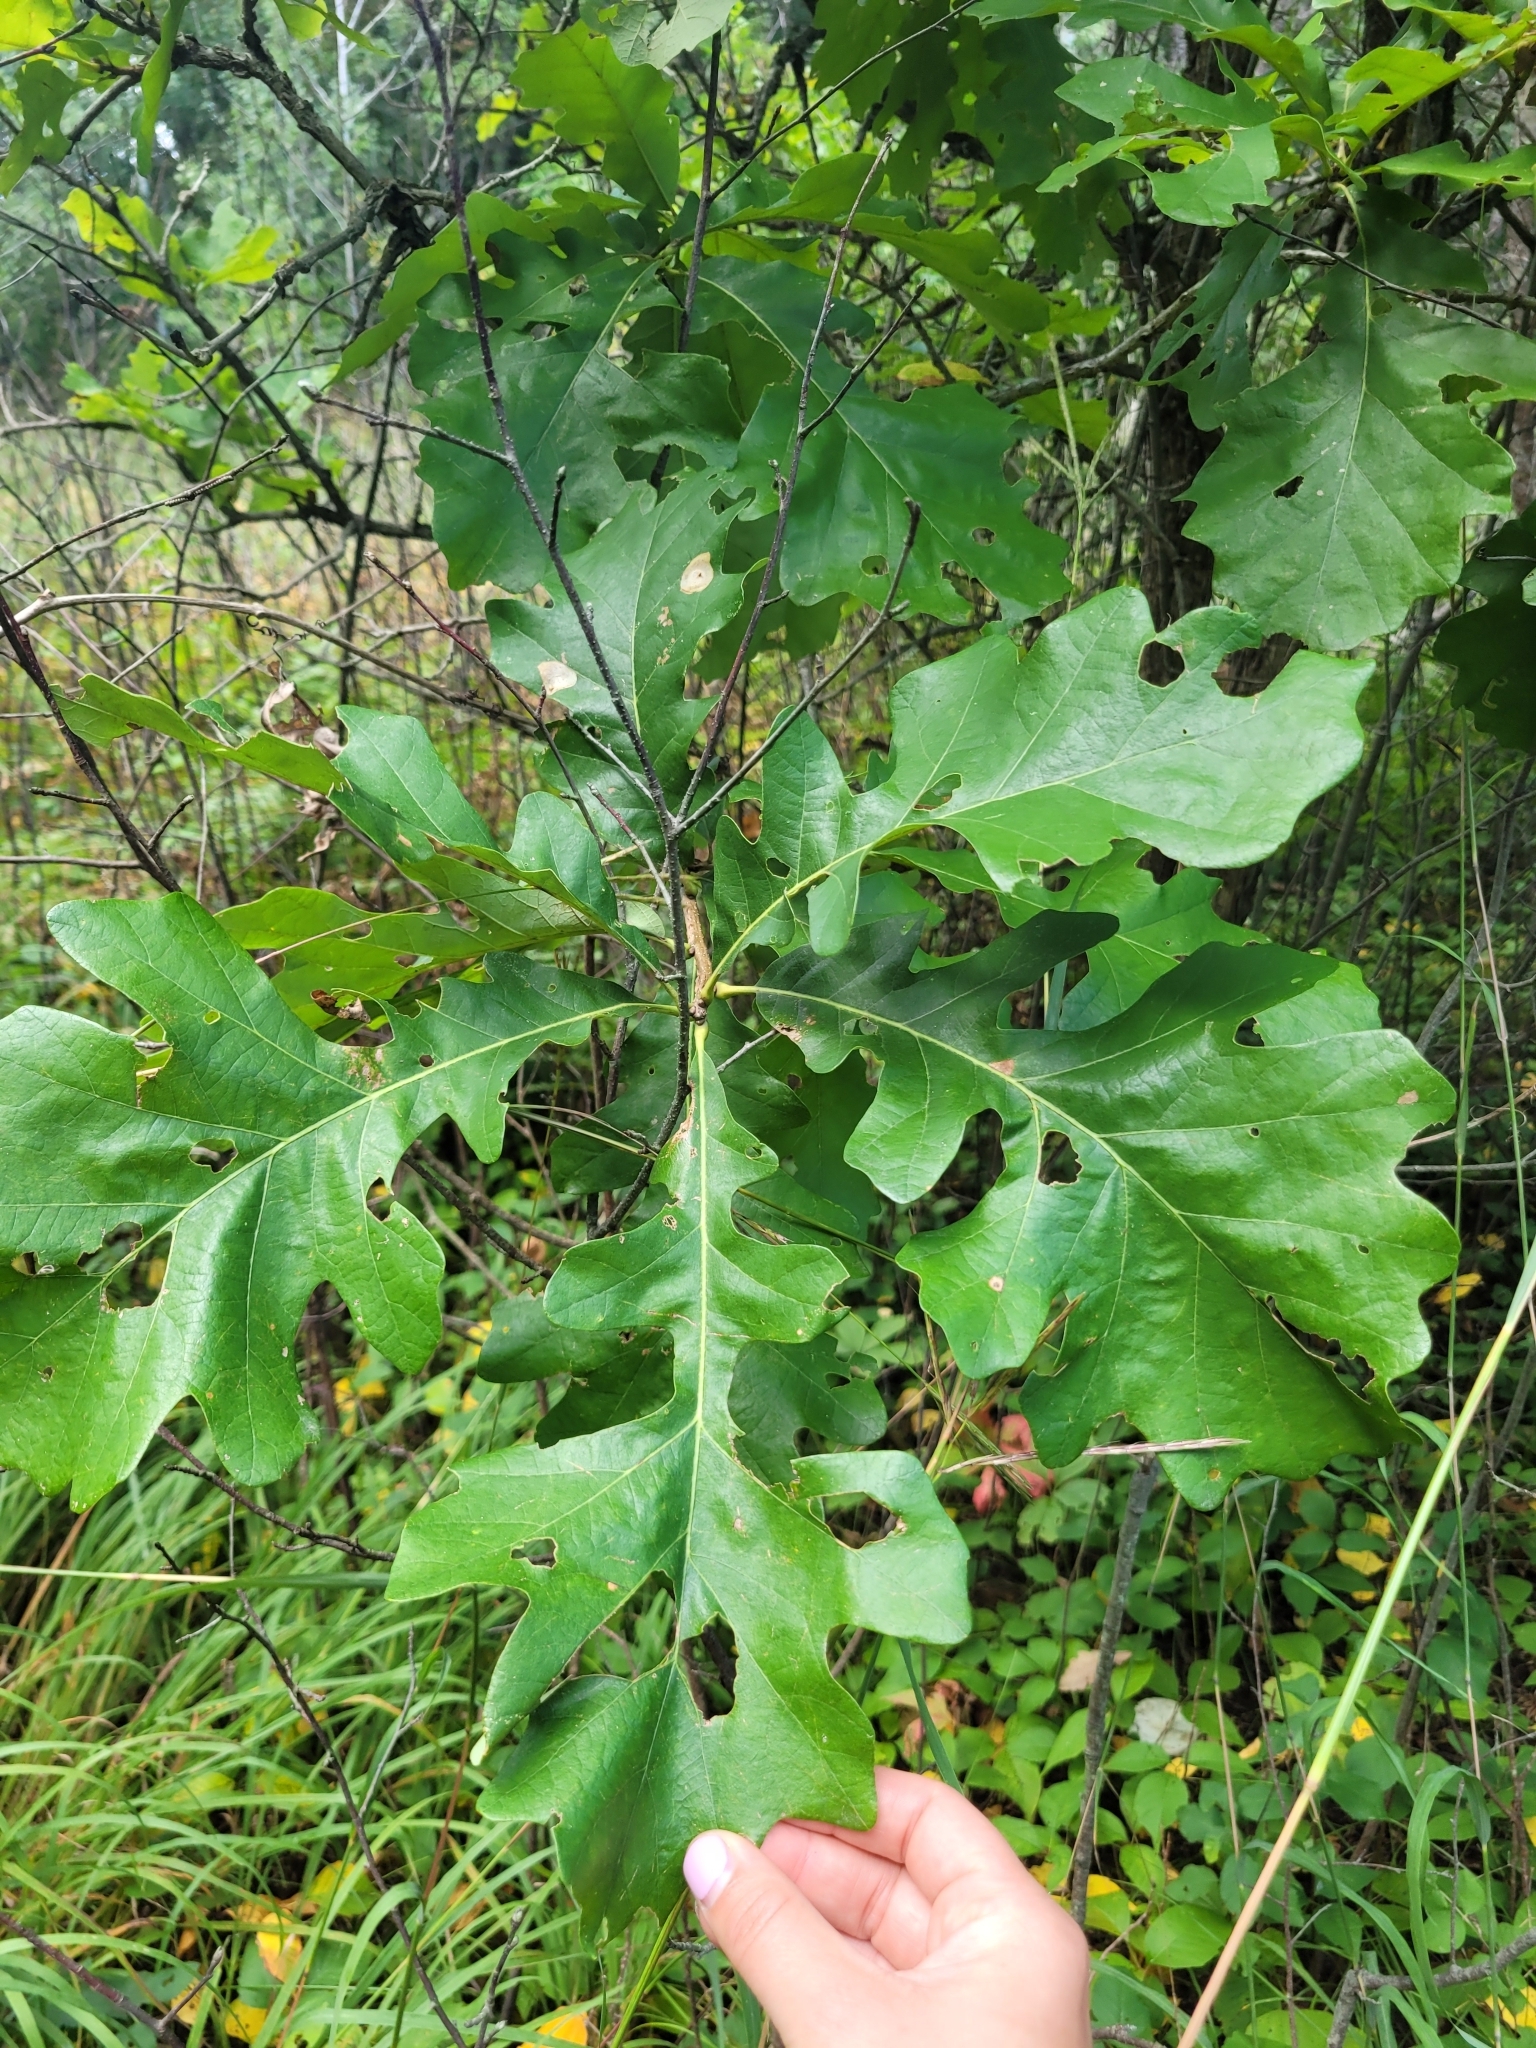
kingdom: Plantae
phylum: Tracheophyta
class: Magnoliopsida
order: Fagales
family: Fagaceae
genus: Quercus
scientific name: Quercus macrocarpa
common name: Bur oak
